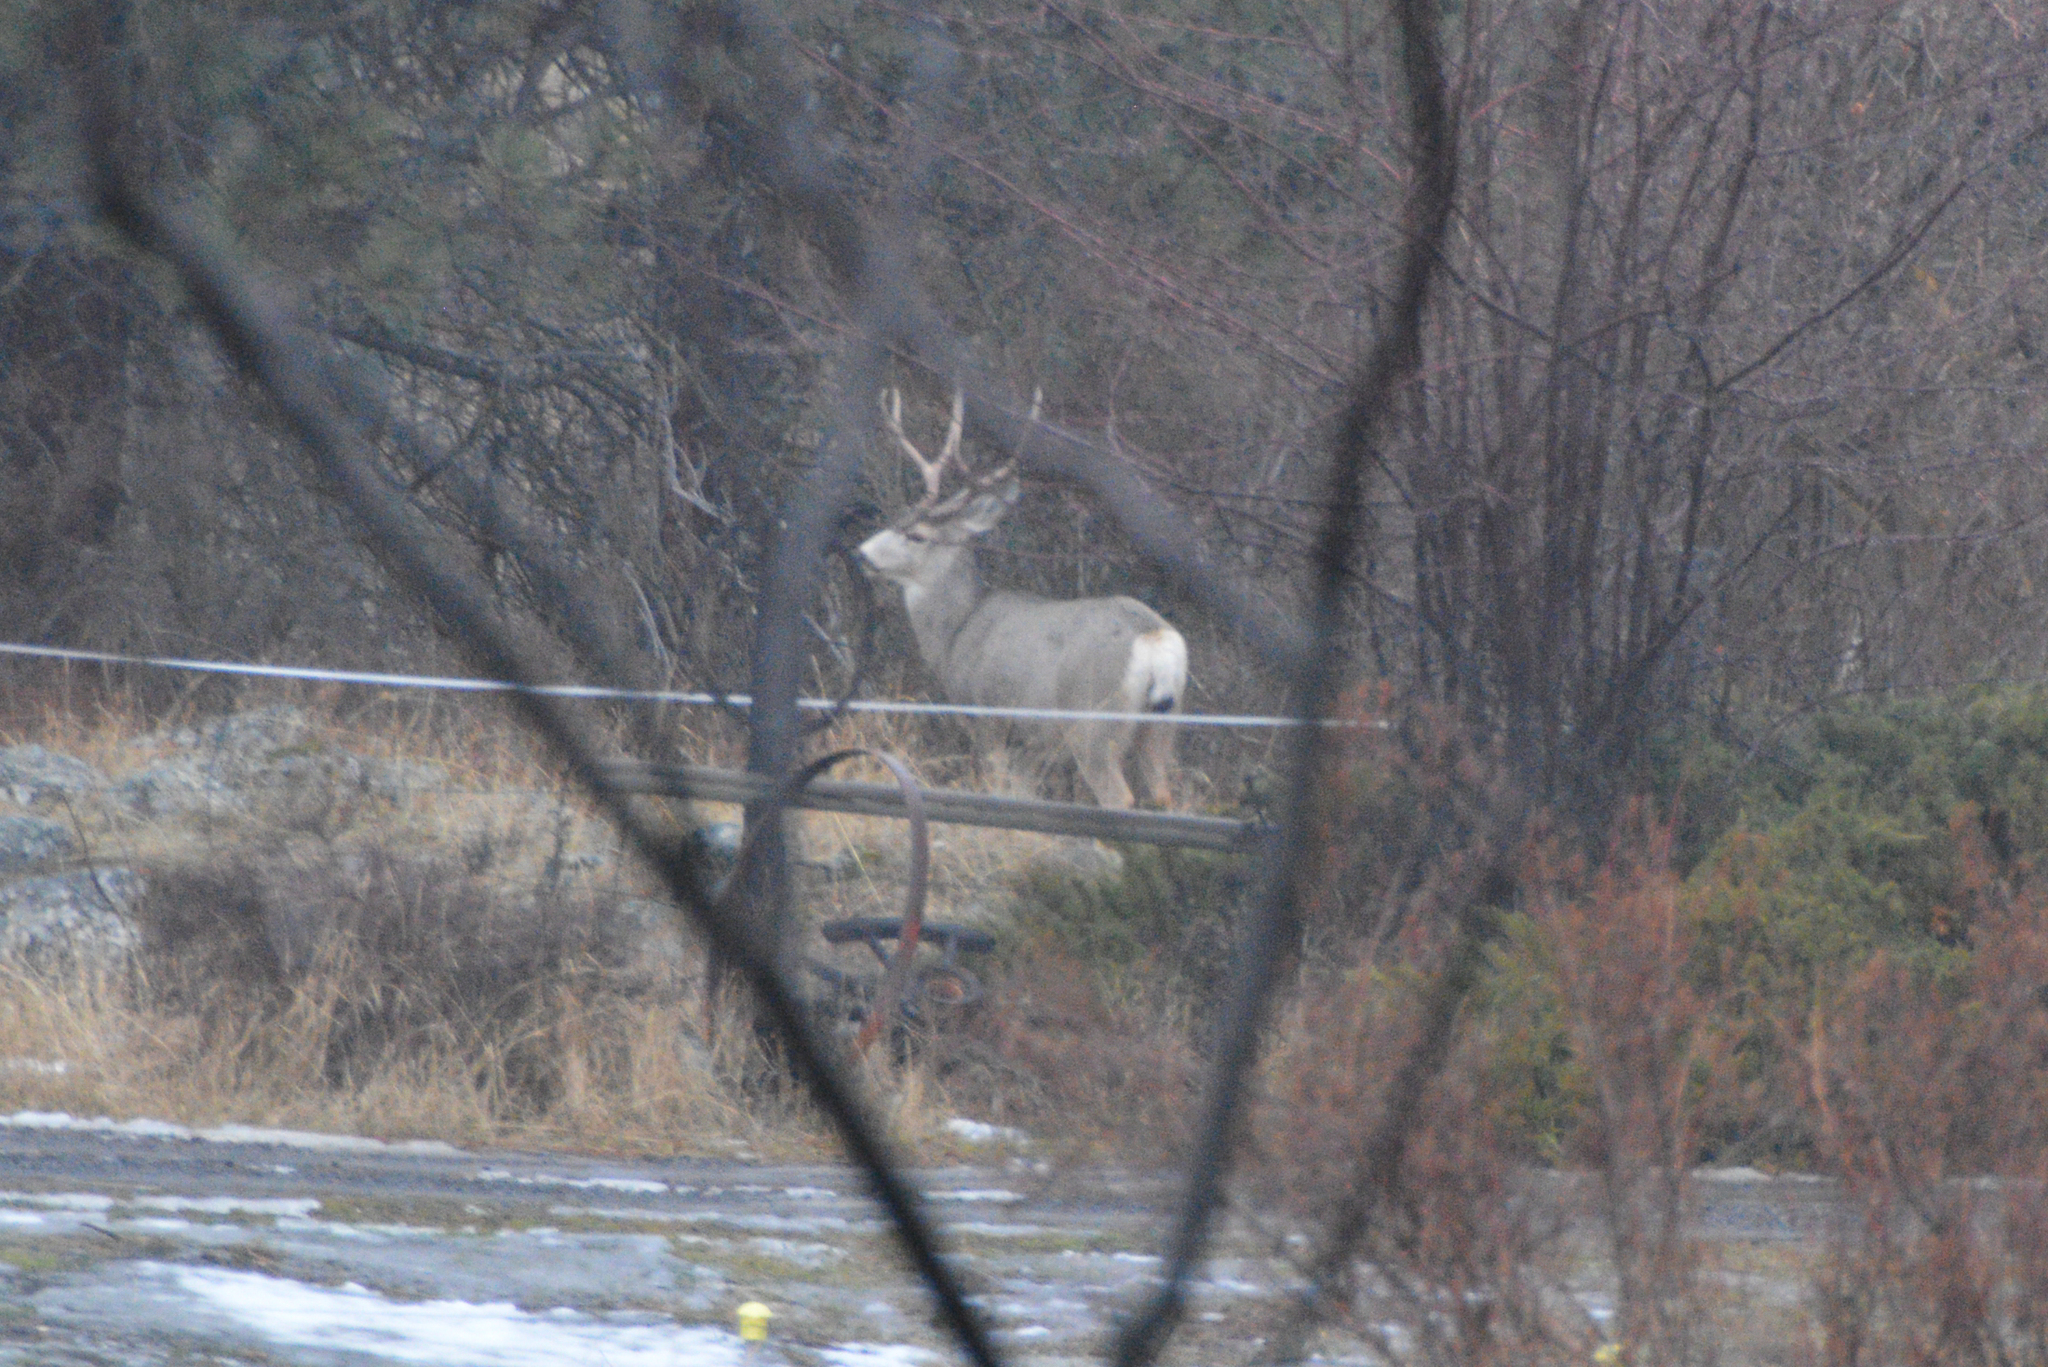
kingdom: Animalia
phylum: Chordata
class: Mammalia
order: Artiodactyla
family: Cervidae
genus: Odocoileus
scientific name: Odocoileus hemionus
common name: Mule deer
